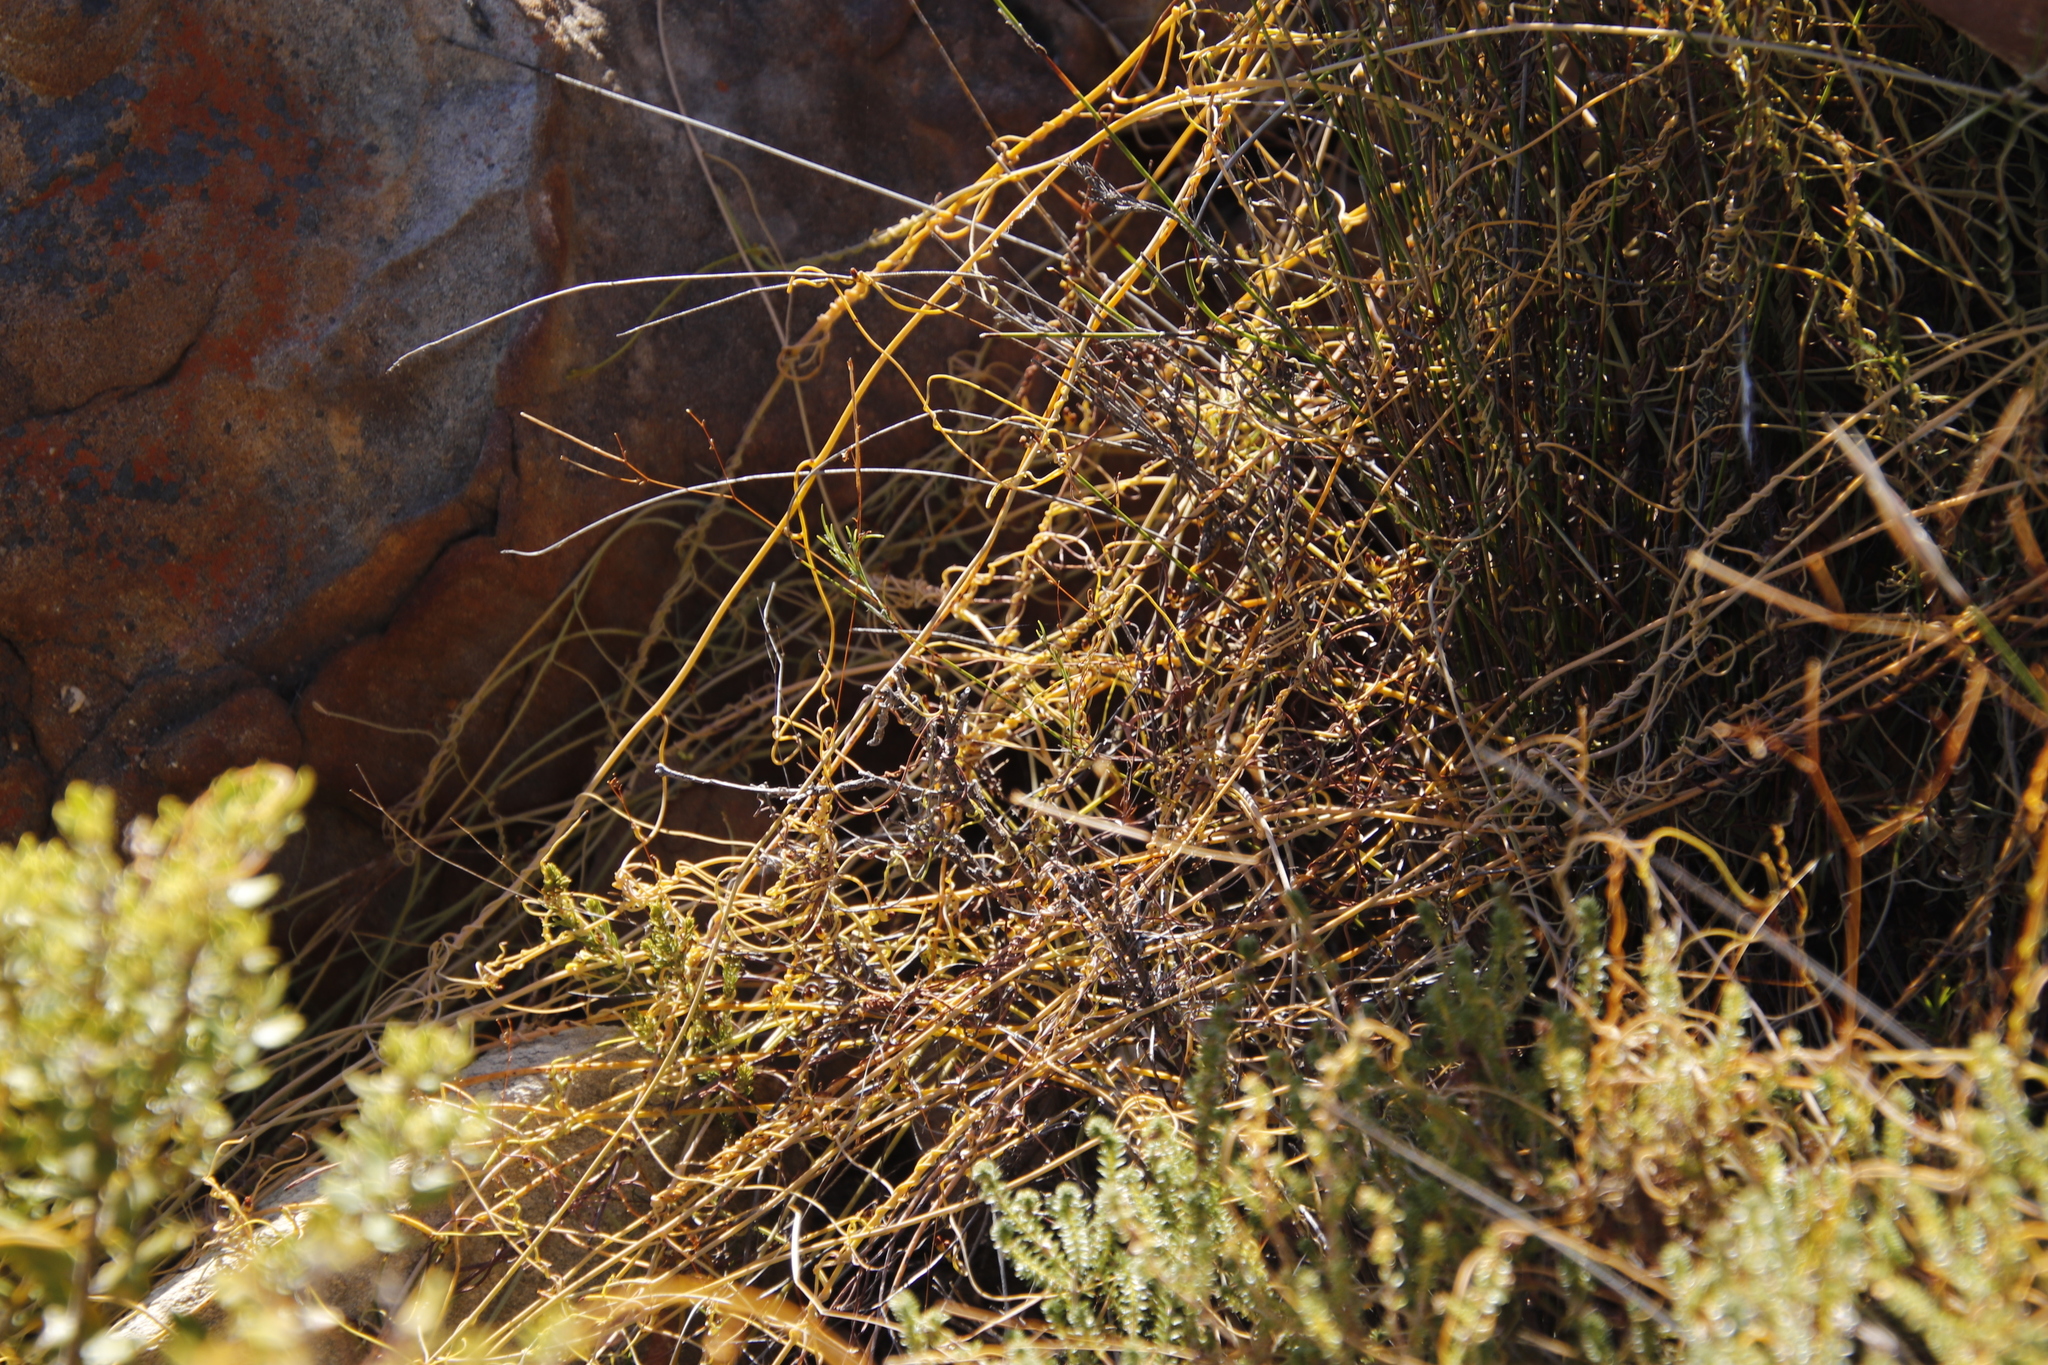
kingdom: Plantae
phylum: Tracheophyta
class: Magnoliopsida
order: Laurales
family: Lauraceae
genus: Cassytha
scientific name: Cassytha ciliolata
